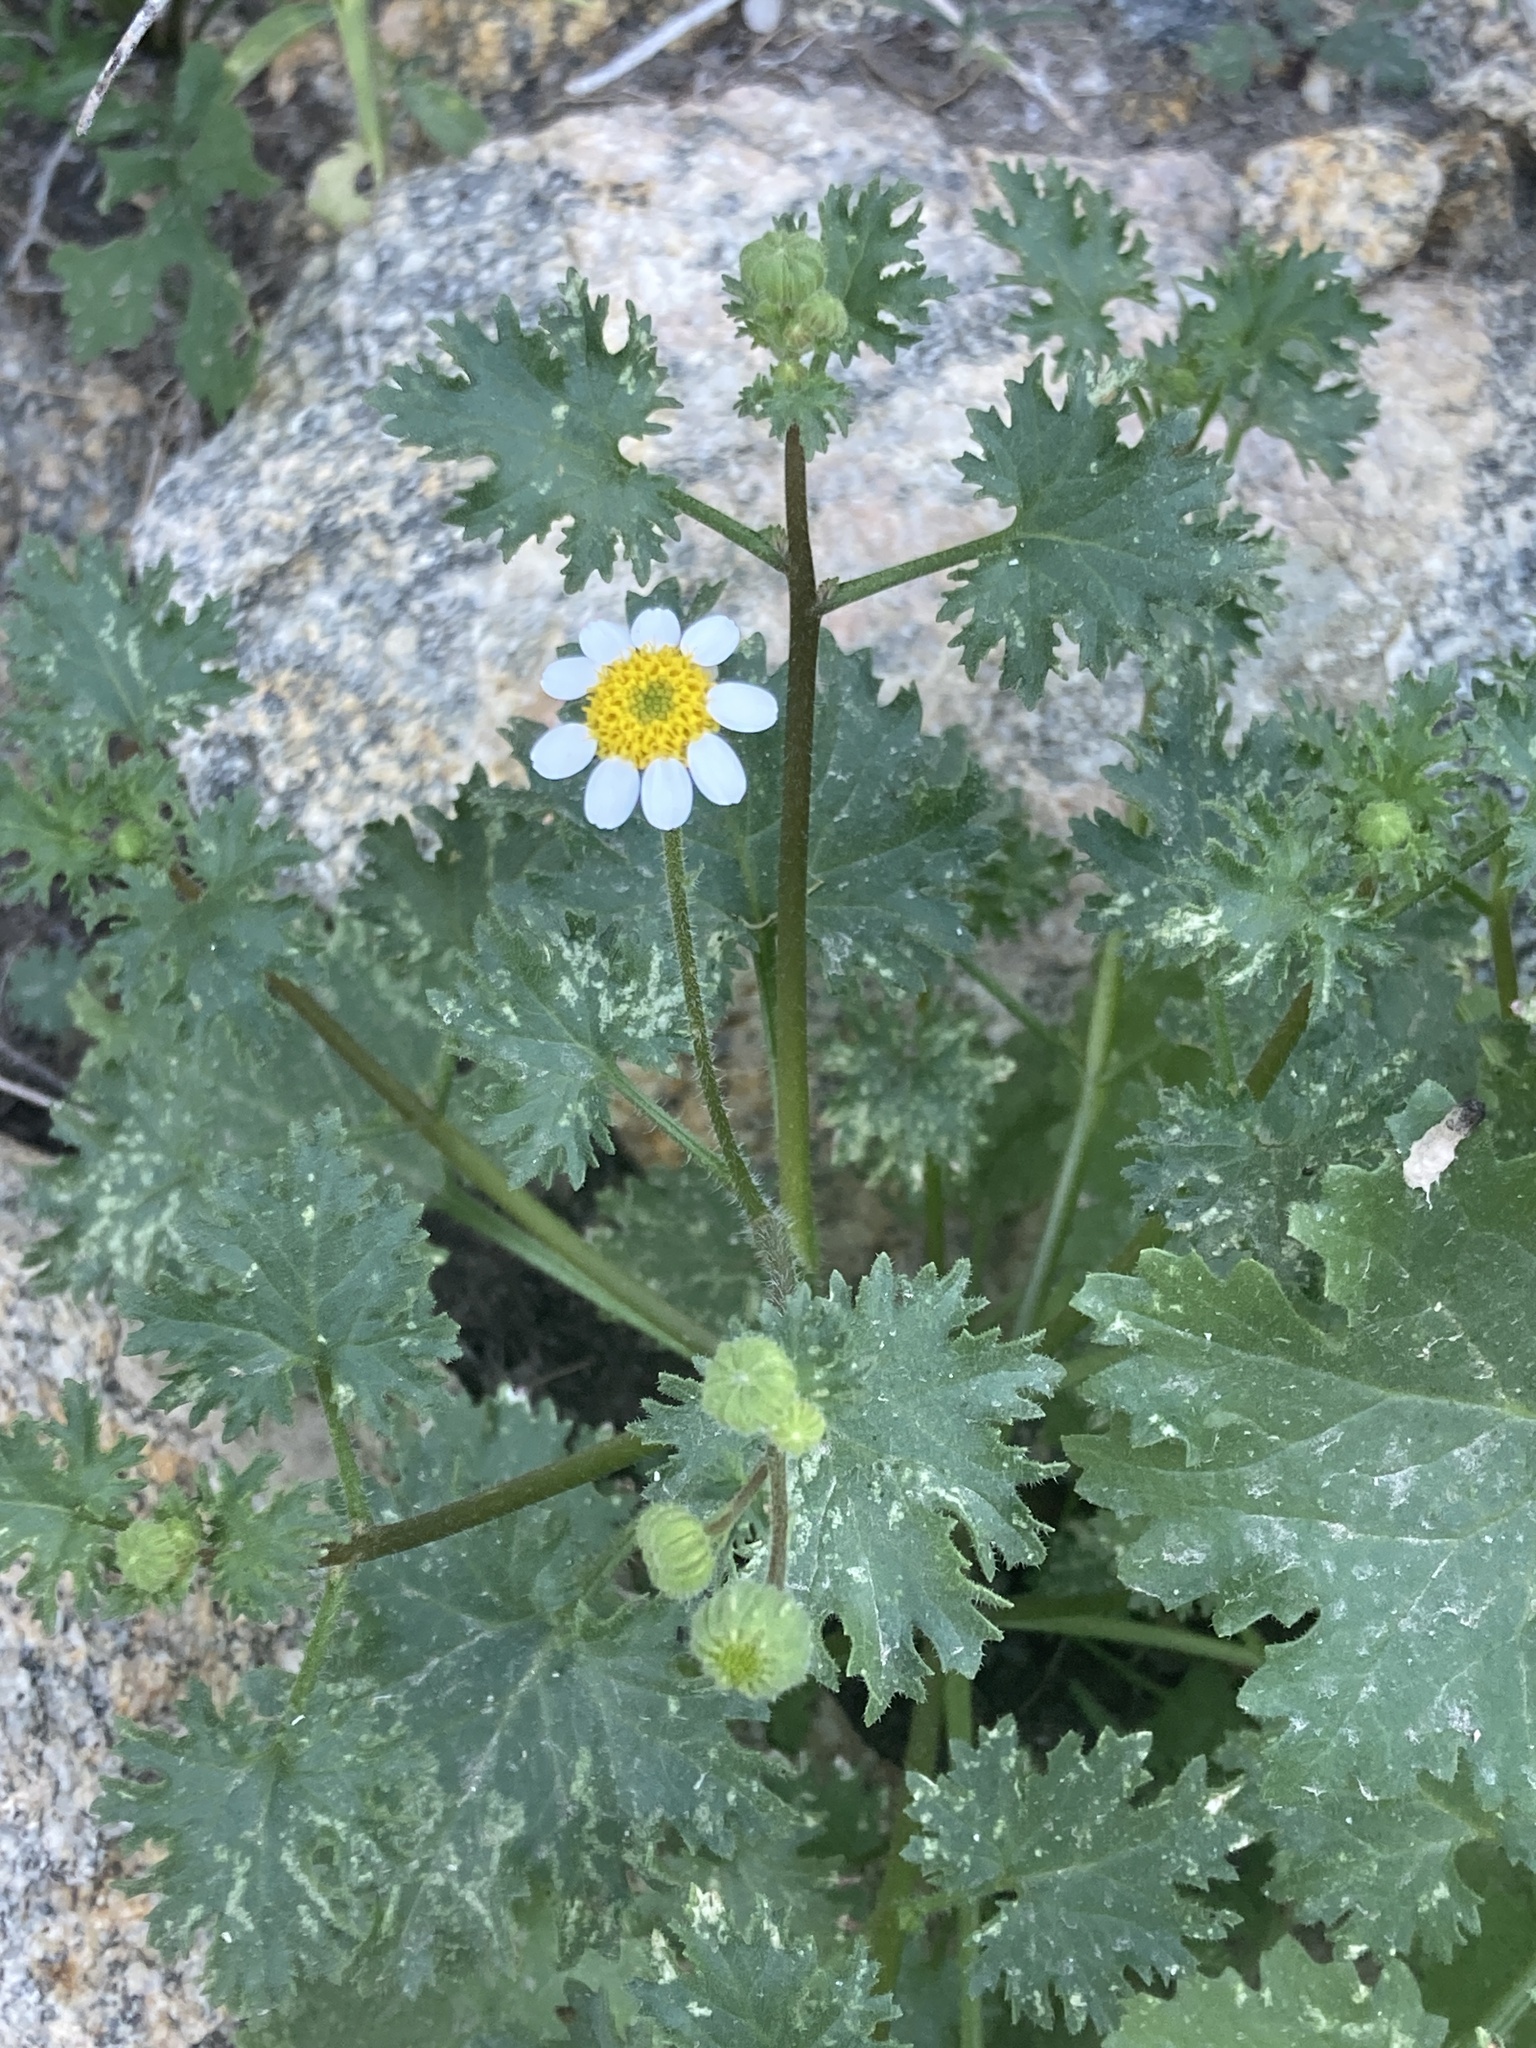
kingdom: Plantae
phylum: Tracheophyta
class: Magnoliopsida
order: Asterales
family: Asteraceae
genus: Laphamia
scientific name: Laphamia emoryi
